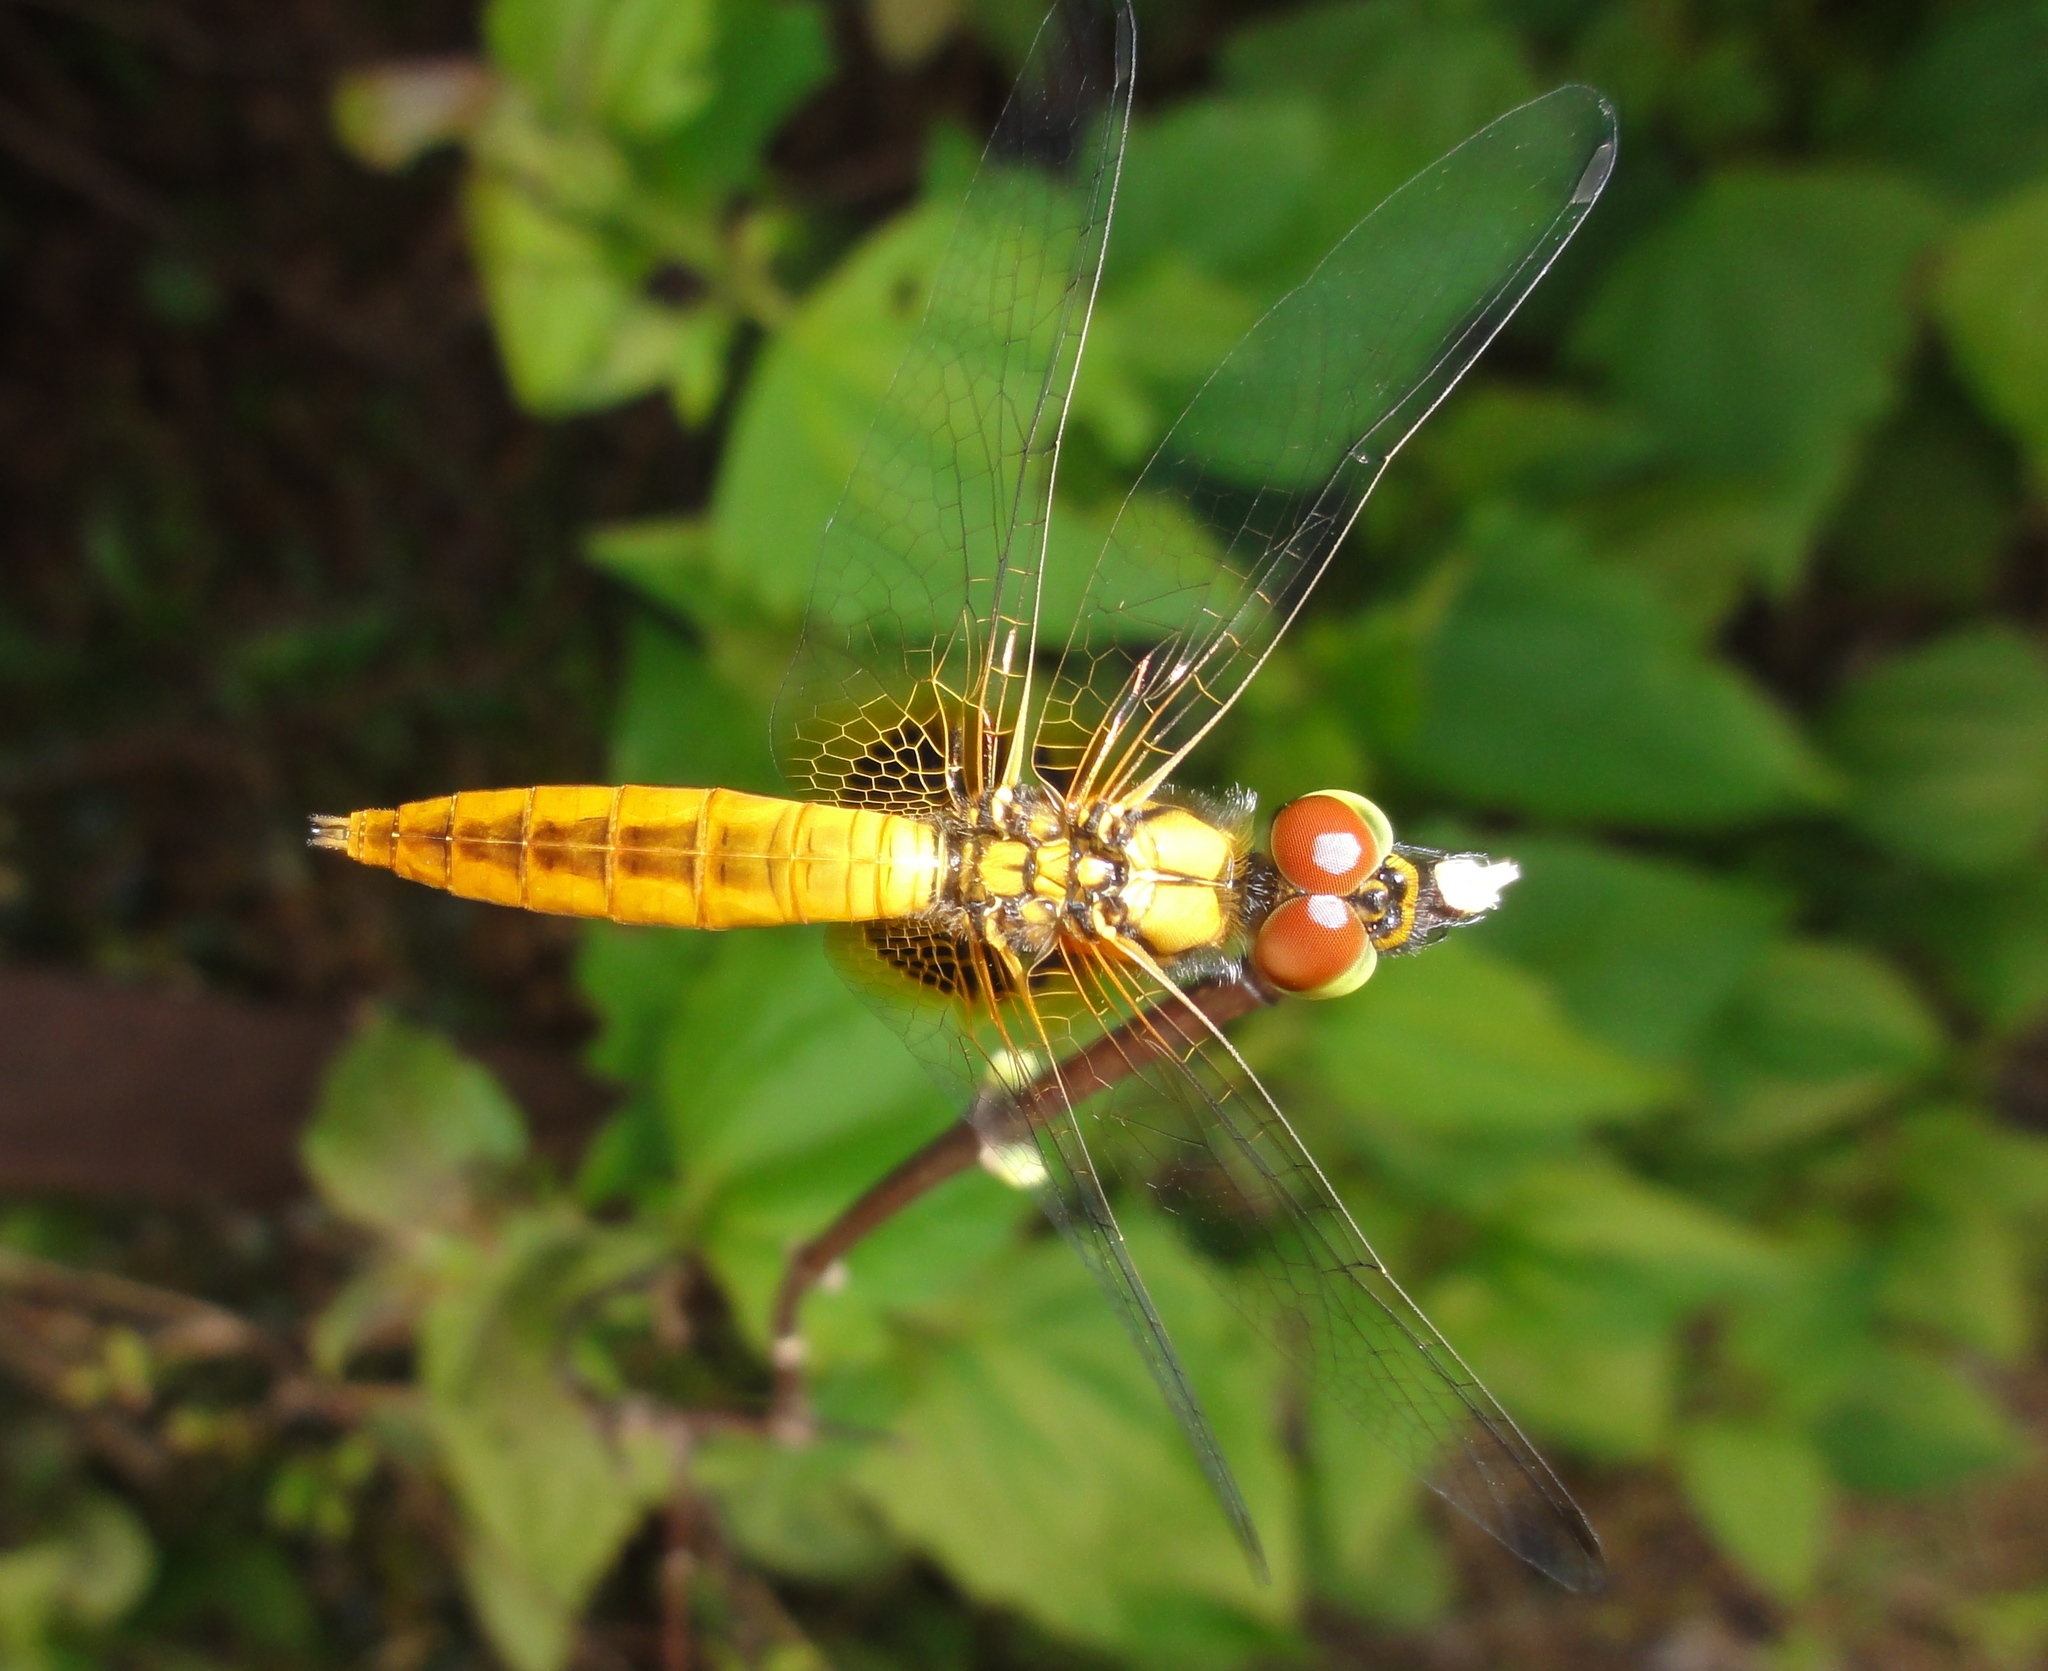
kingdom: Animalia
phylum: Arthropoda
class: Insecta
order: Odonata
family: Libellulidae
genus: Aethriamanta
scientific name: Aethriamanta brevipennis
